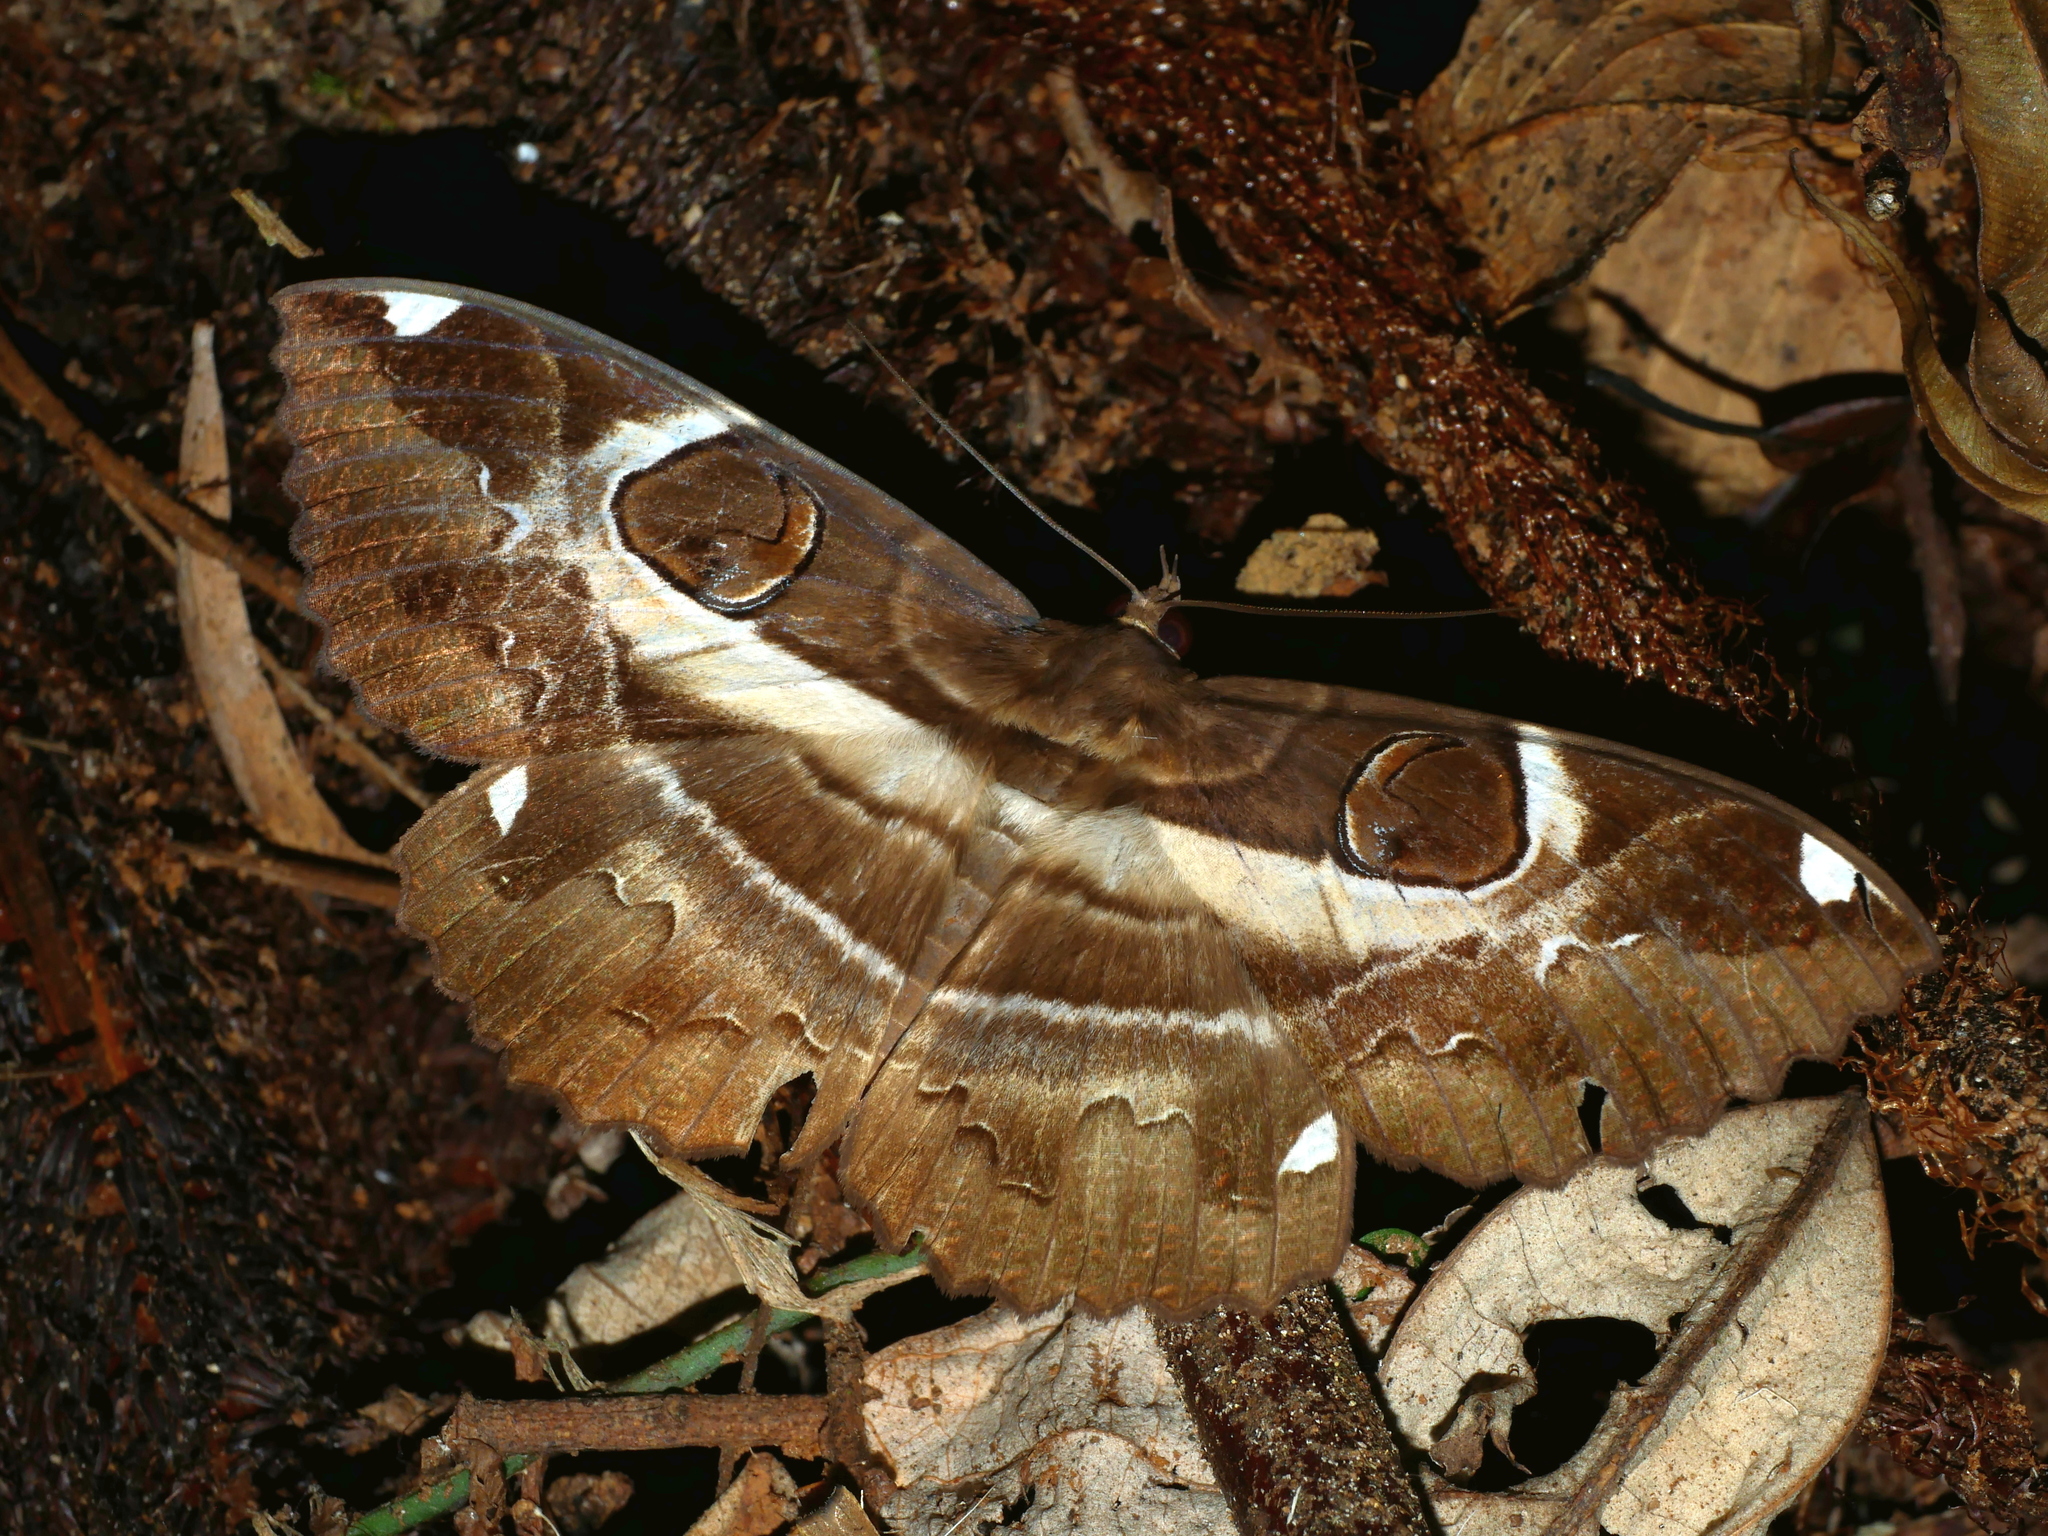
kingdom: Animalia
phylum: Arthropoda
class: Insecta
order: Lepidoptera
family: Erebidae
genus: Erebus
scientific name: Erebus ephesperis
